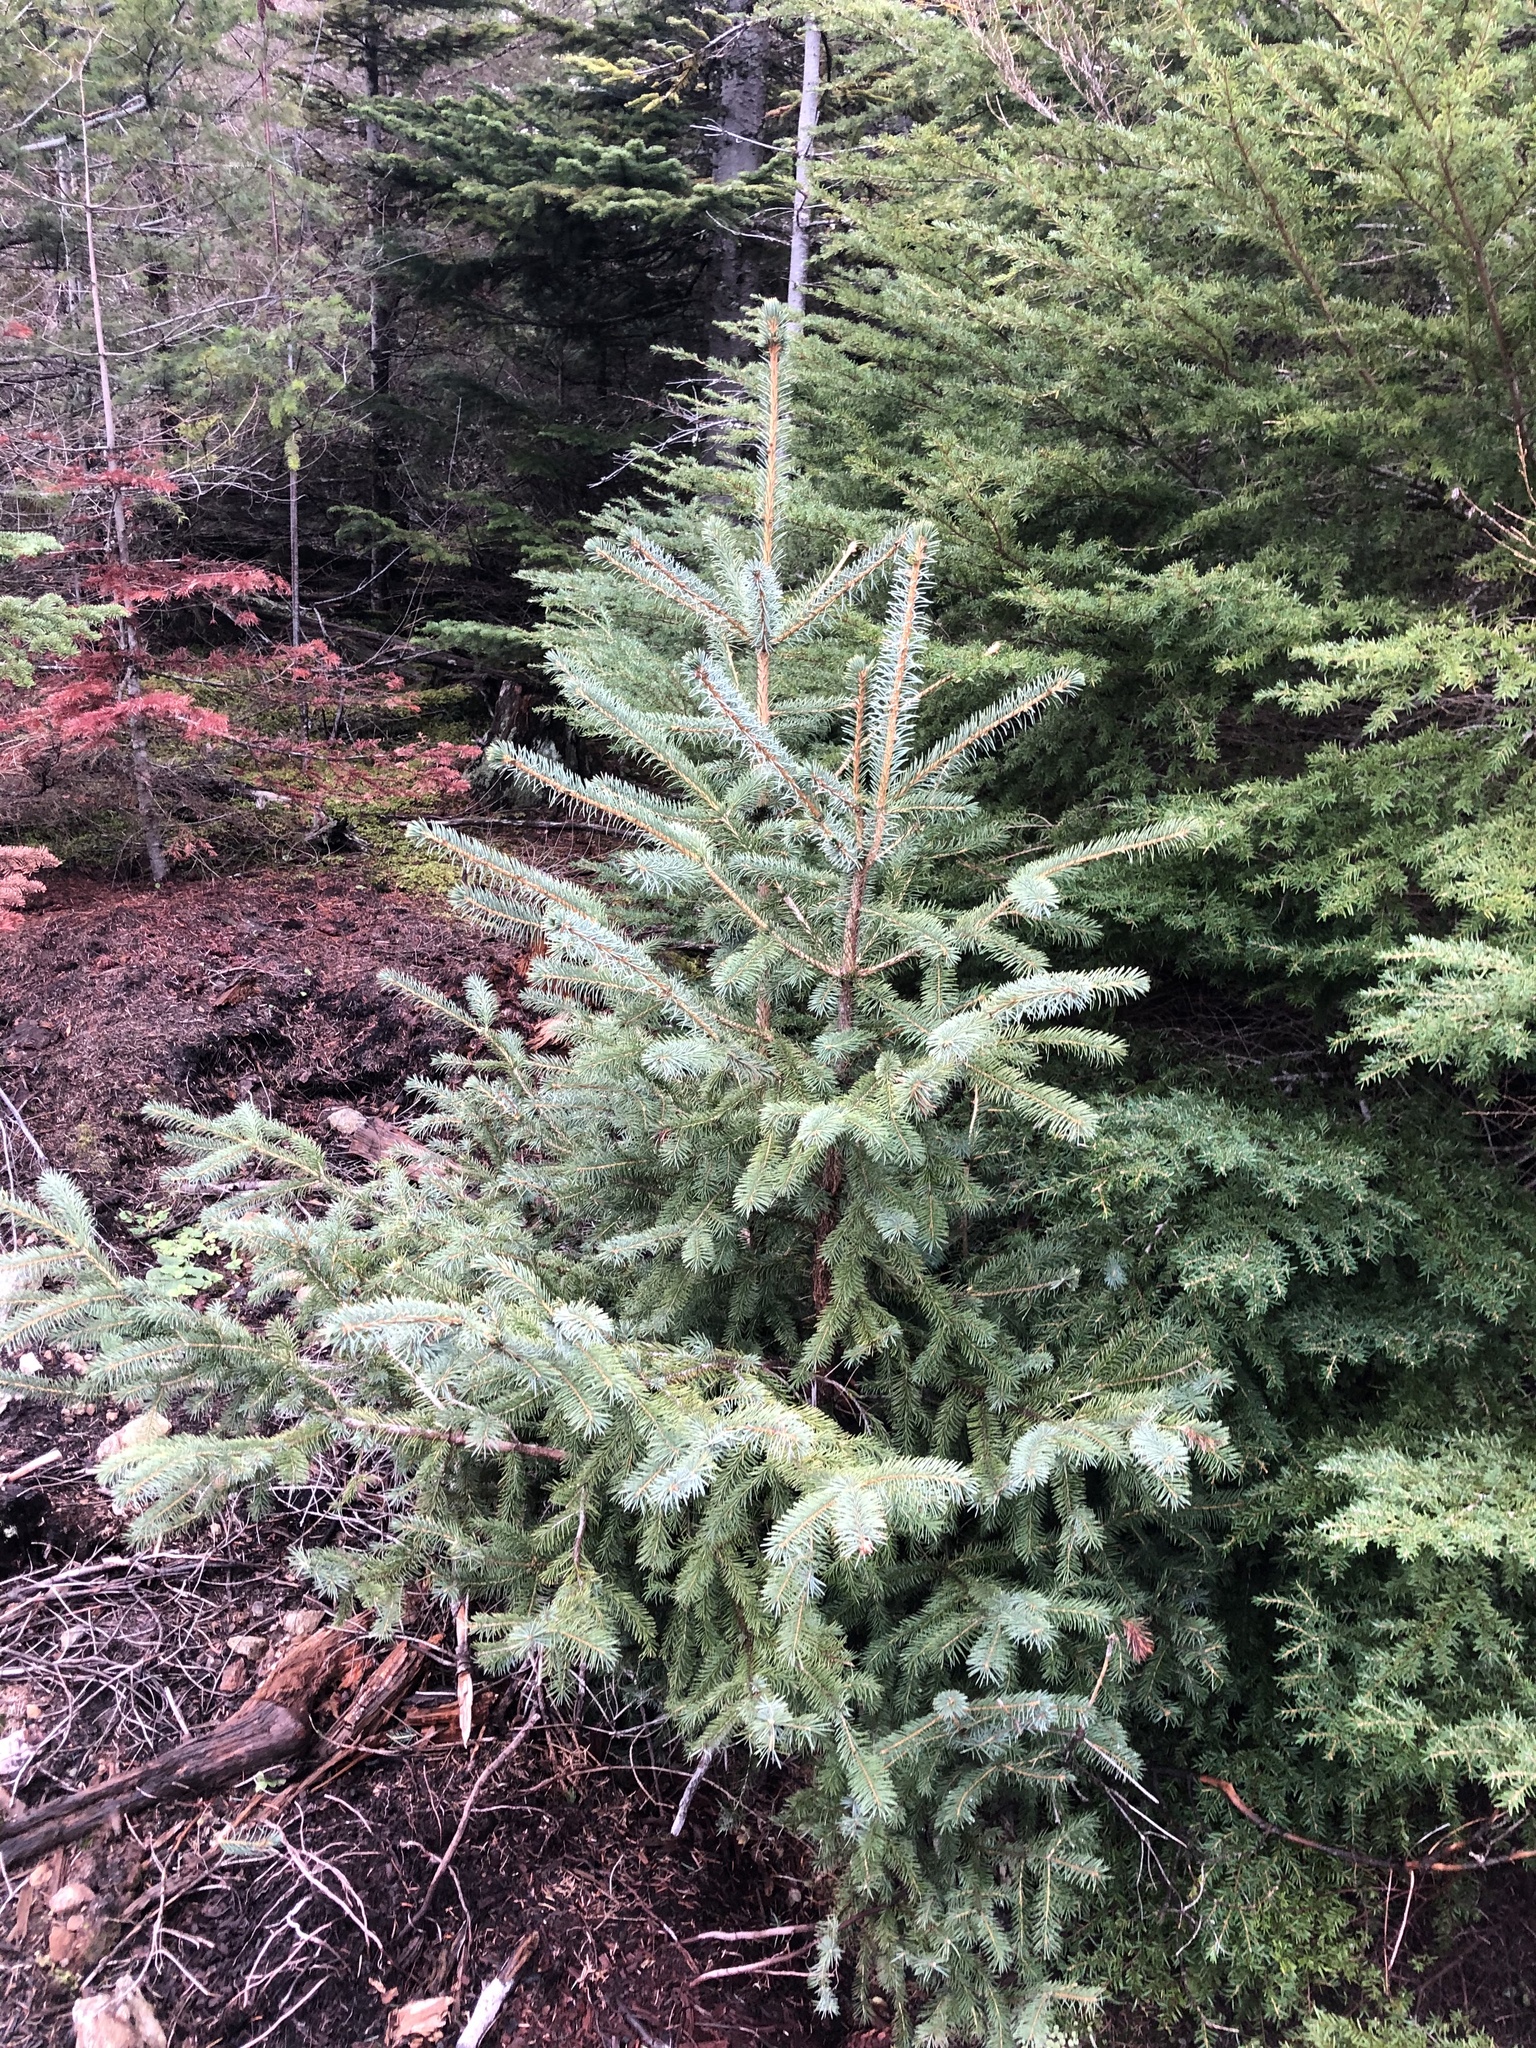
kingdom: Plantae
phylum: Tracheophyta
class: Pinopsida
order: Pinales
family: Pinaceae
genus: Picea
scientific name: Picea sitchensis
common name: Sitka spruce
